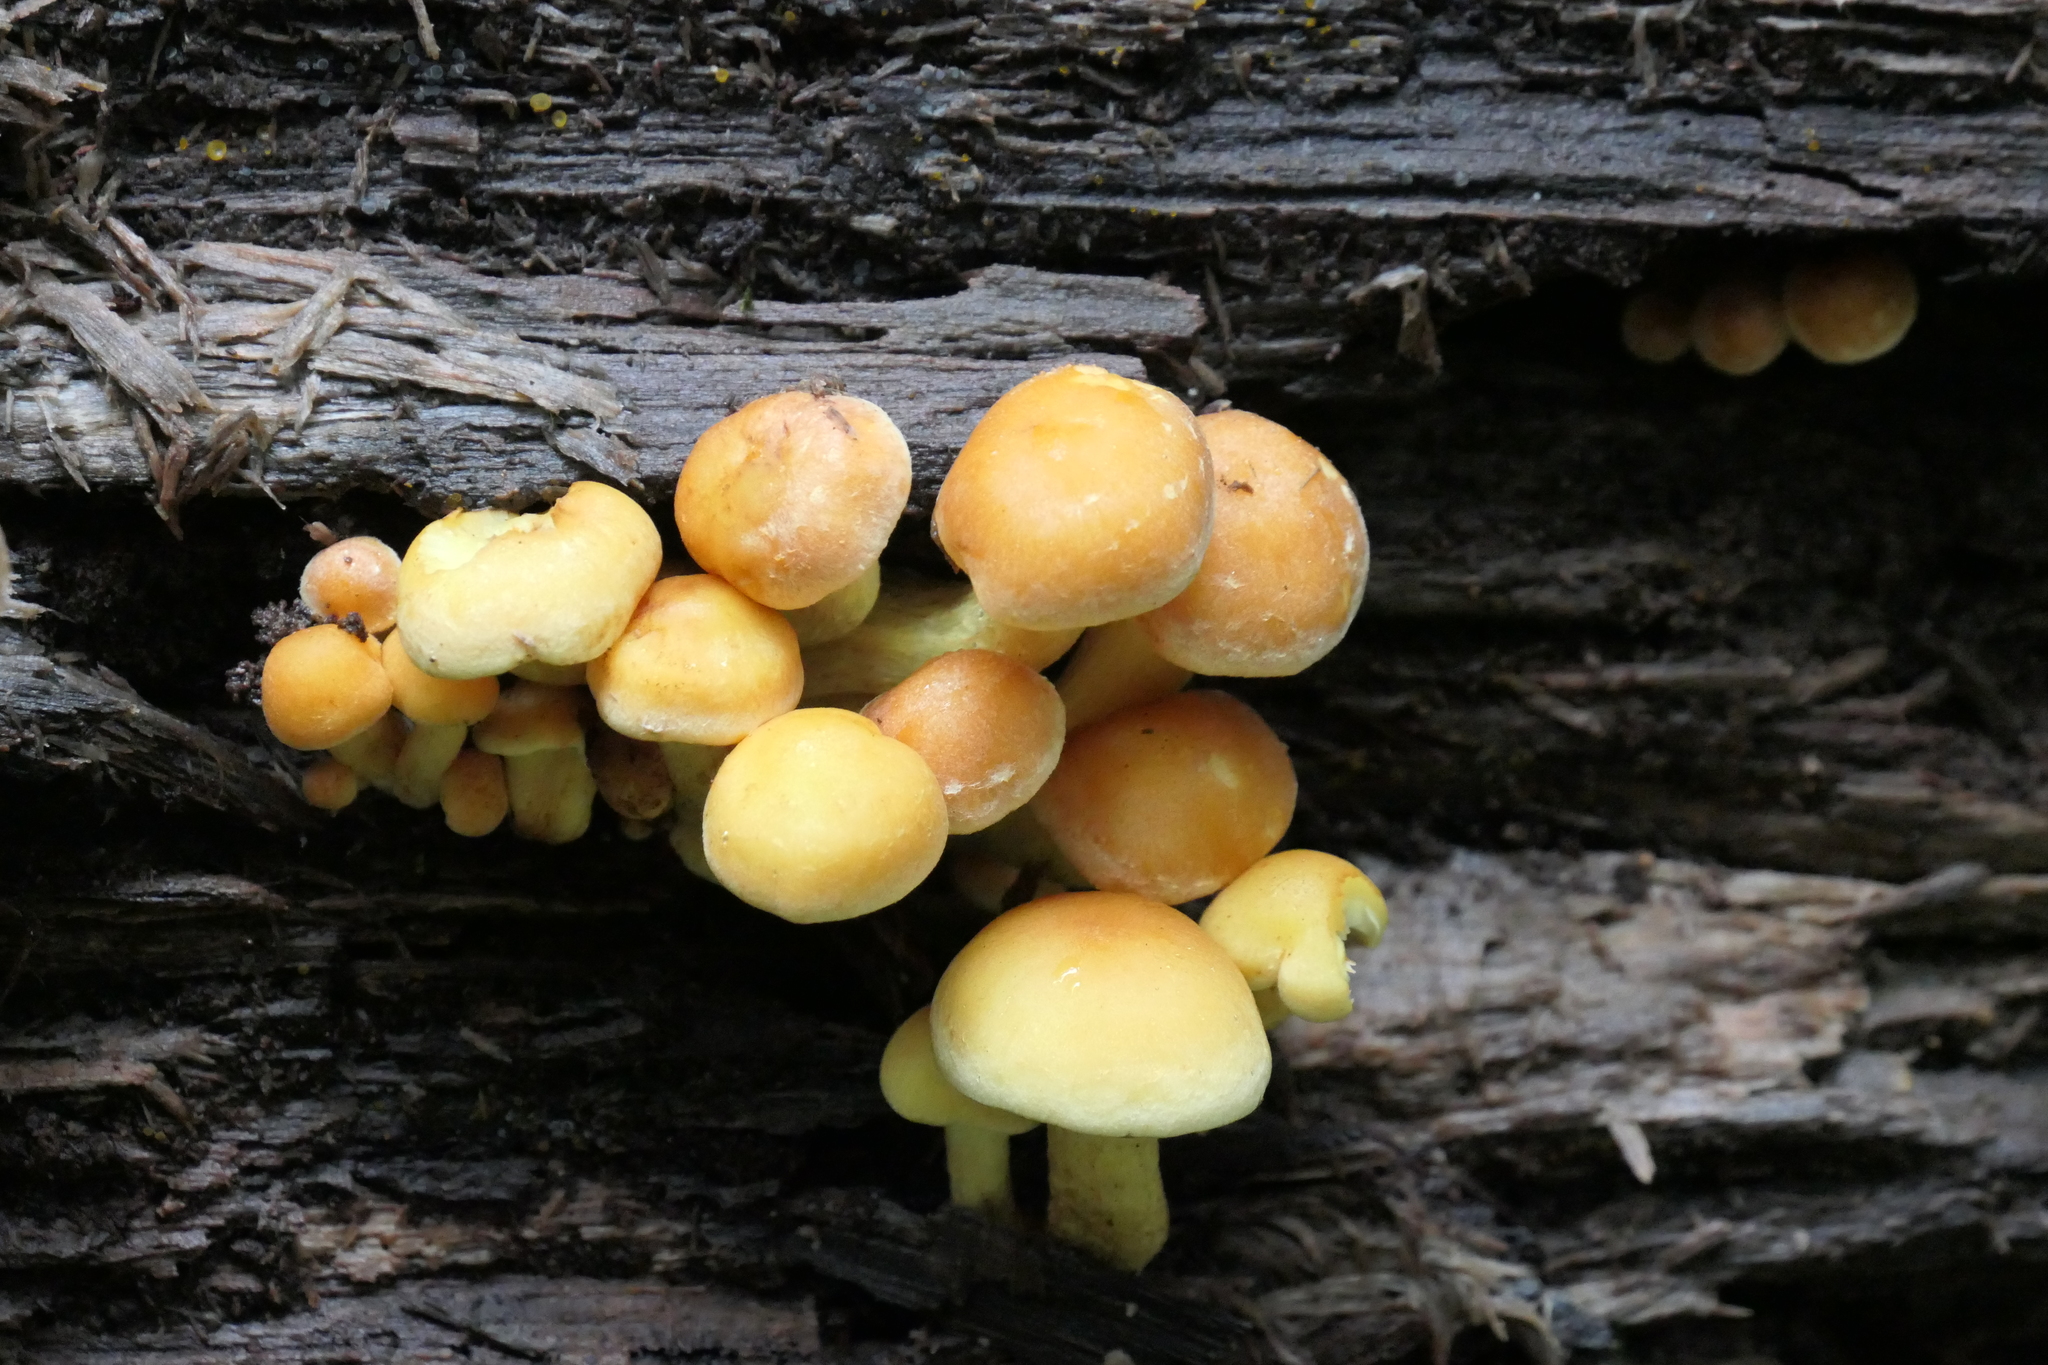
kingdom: Fungi
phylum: Basidiomycota
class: Agaricomycetes
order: Agaricales
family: Strophariaceae
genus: Hypholoma
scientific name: Hypholoma fasciculare
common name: Sulphur tuft
